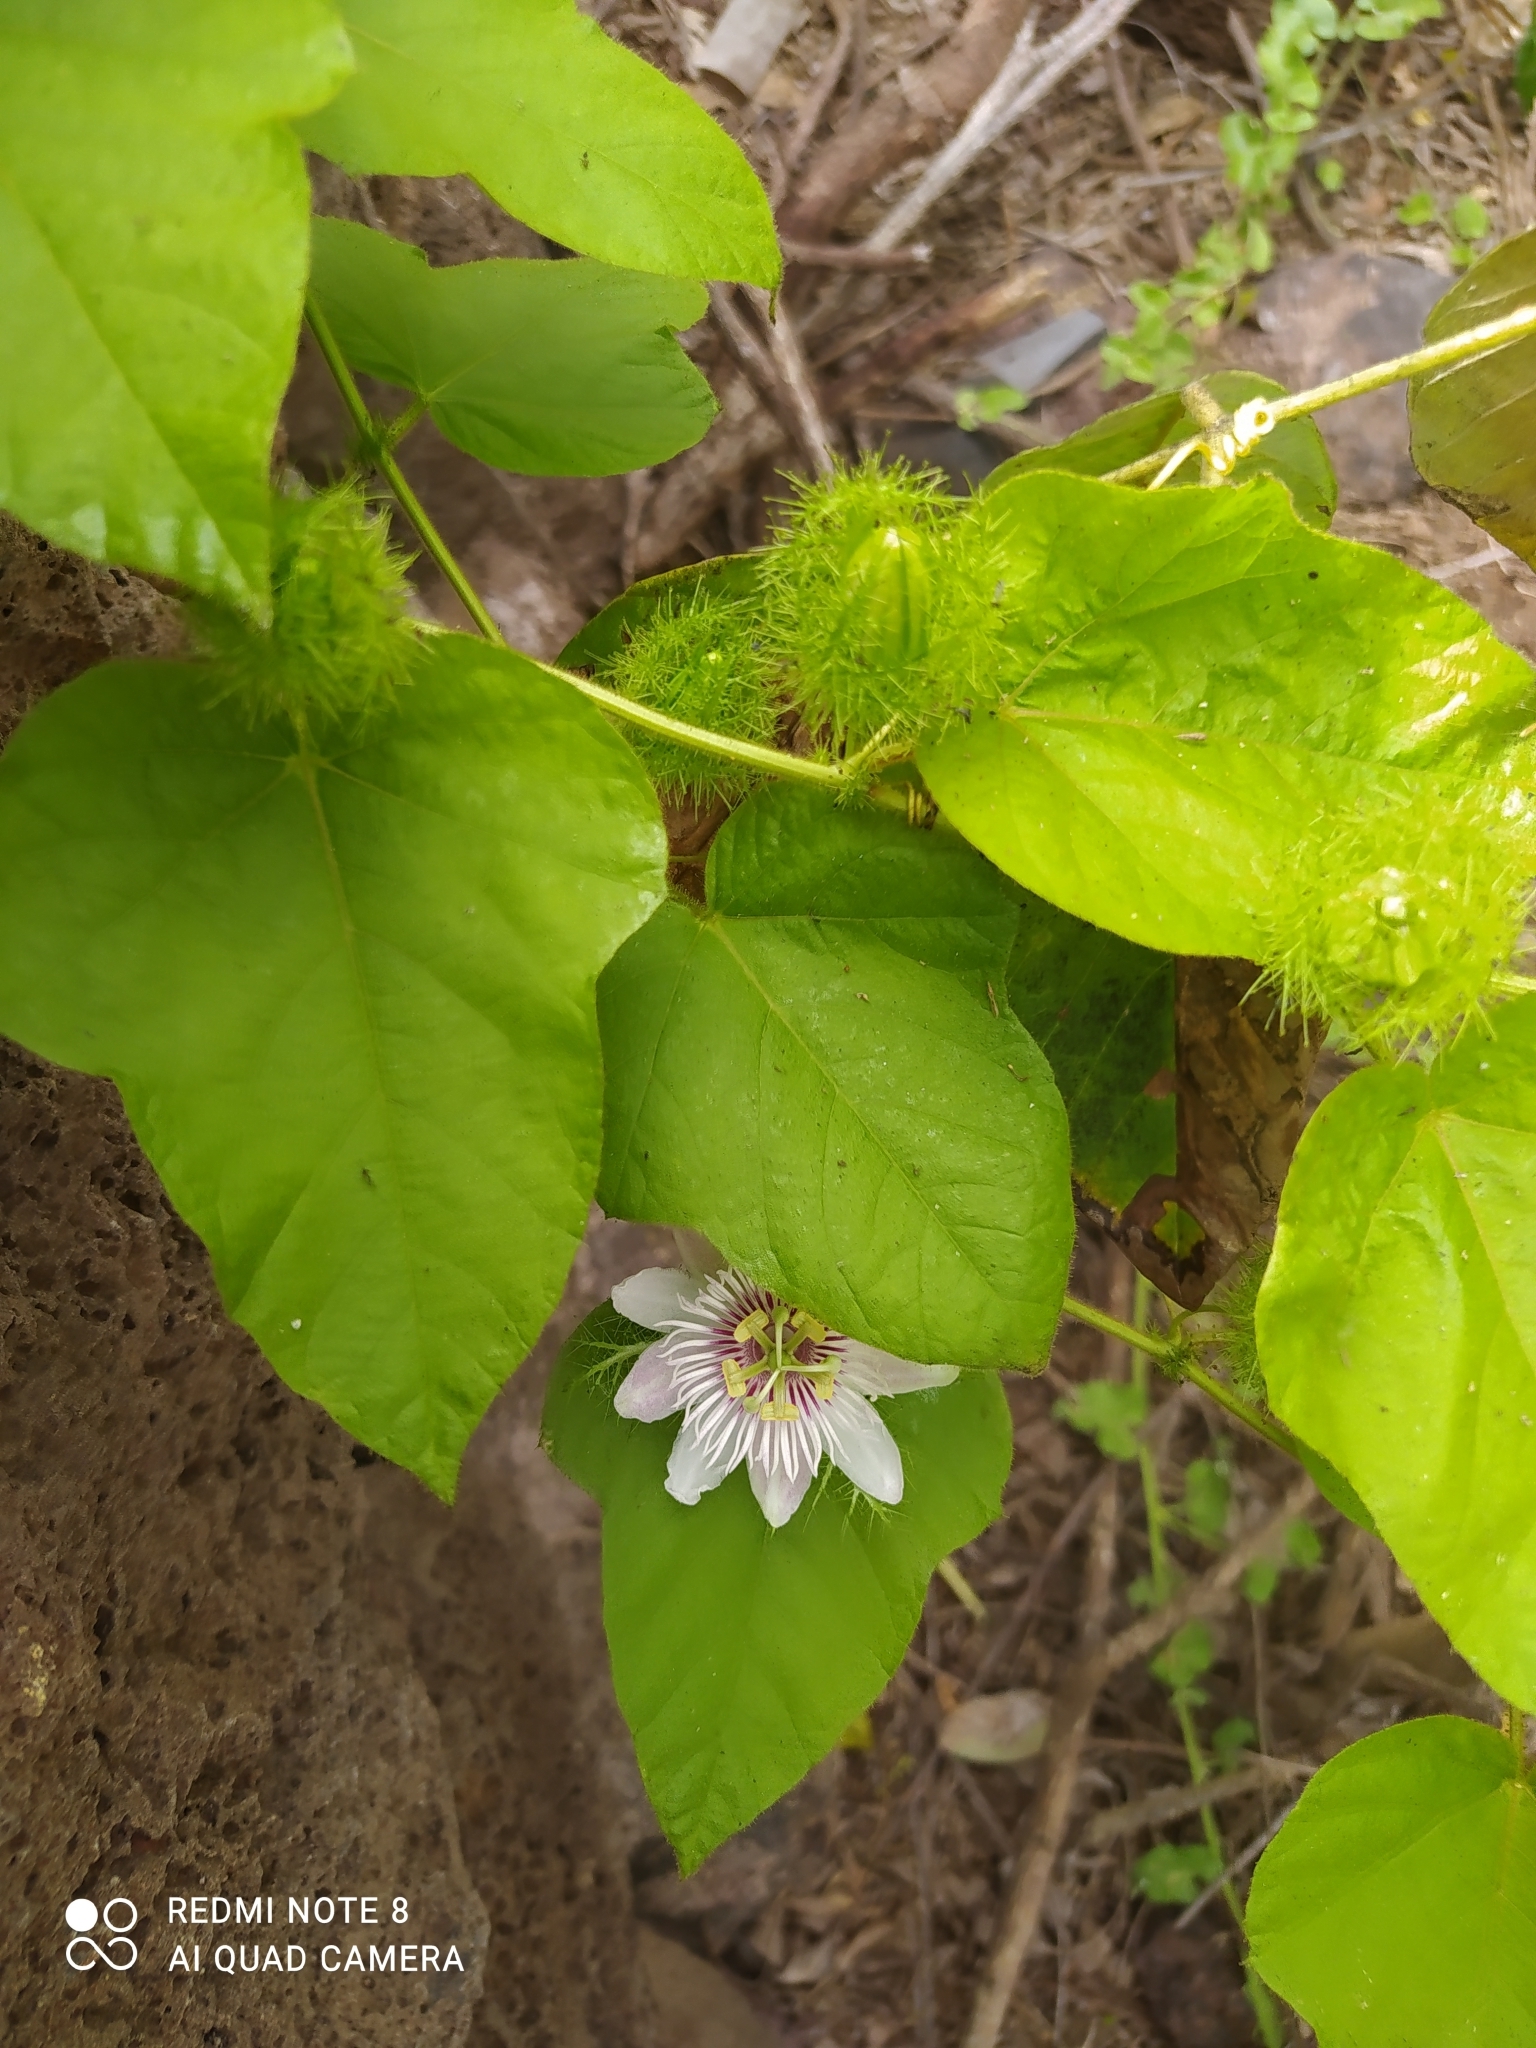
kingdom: Plantae
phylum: Tracheophyta
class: Magnoliopsida
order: Malpighiales
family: Passifloraceae
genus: Passiflora
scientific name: Passiflora vesicaria
